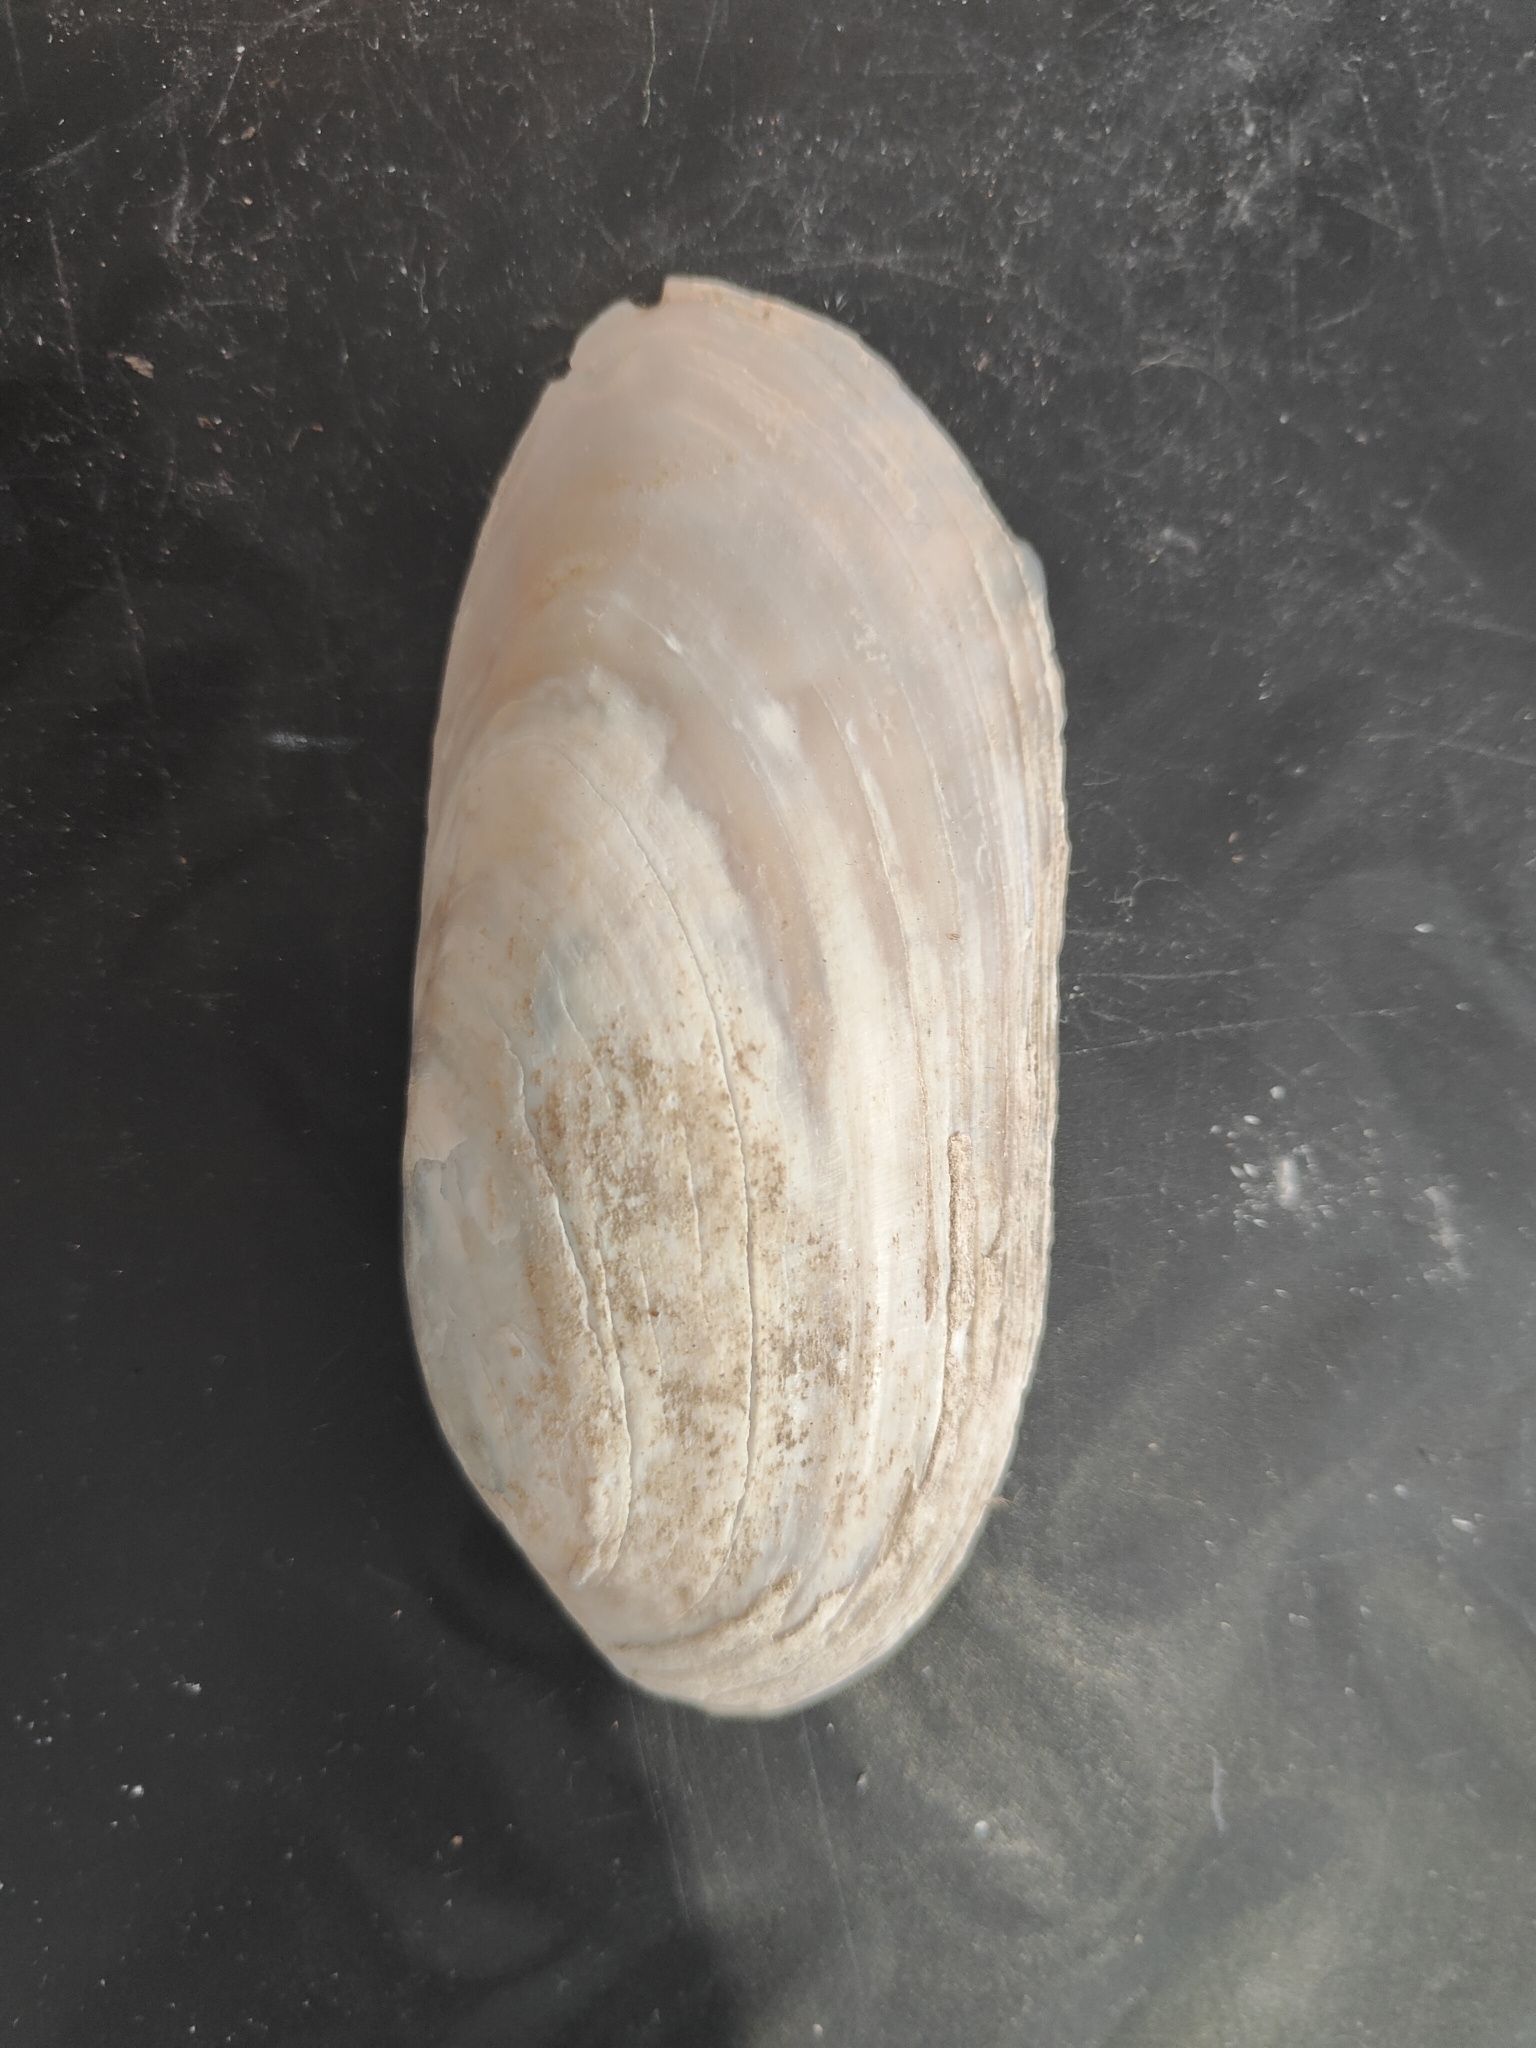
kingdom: Animalia
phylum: Mollusca
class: Bivalvia
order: Unionida
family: Unionidae
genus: Ligumia
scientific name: Ligumia recta
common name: Black sandshell
